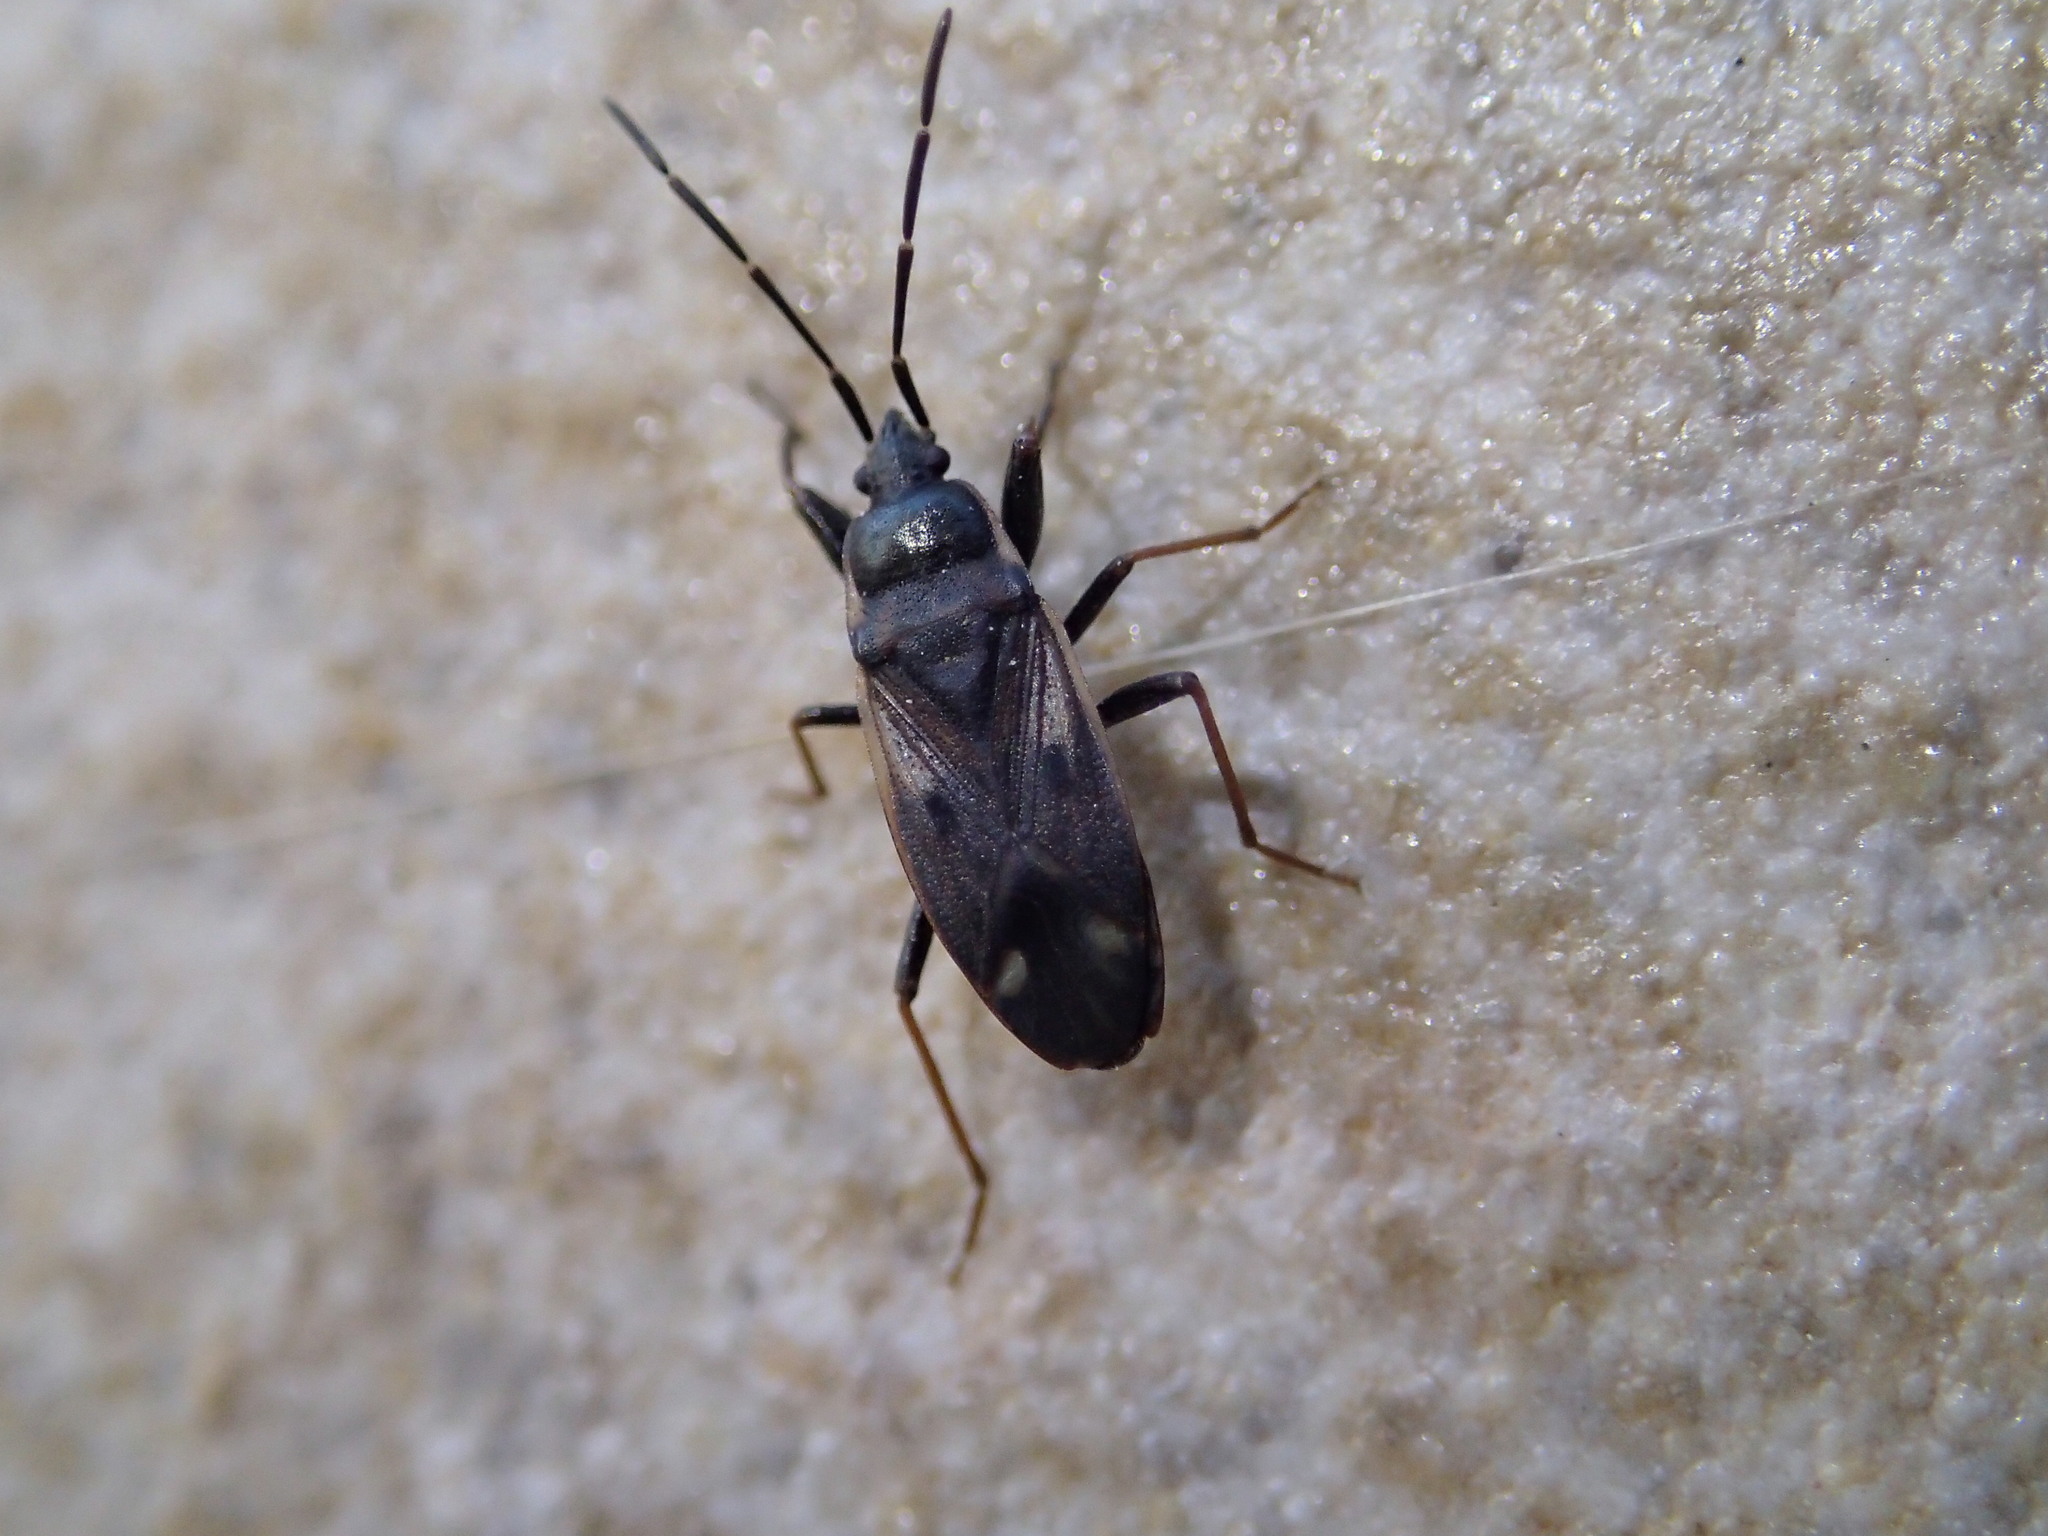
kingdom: Animalia
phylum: Arthropoda
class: Insecta
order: Hemiptera
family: Rhyparochromidae
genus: Eremocoris
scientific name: Eremocoris fenestratus
